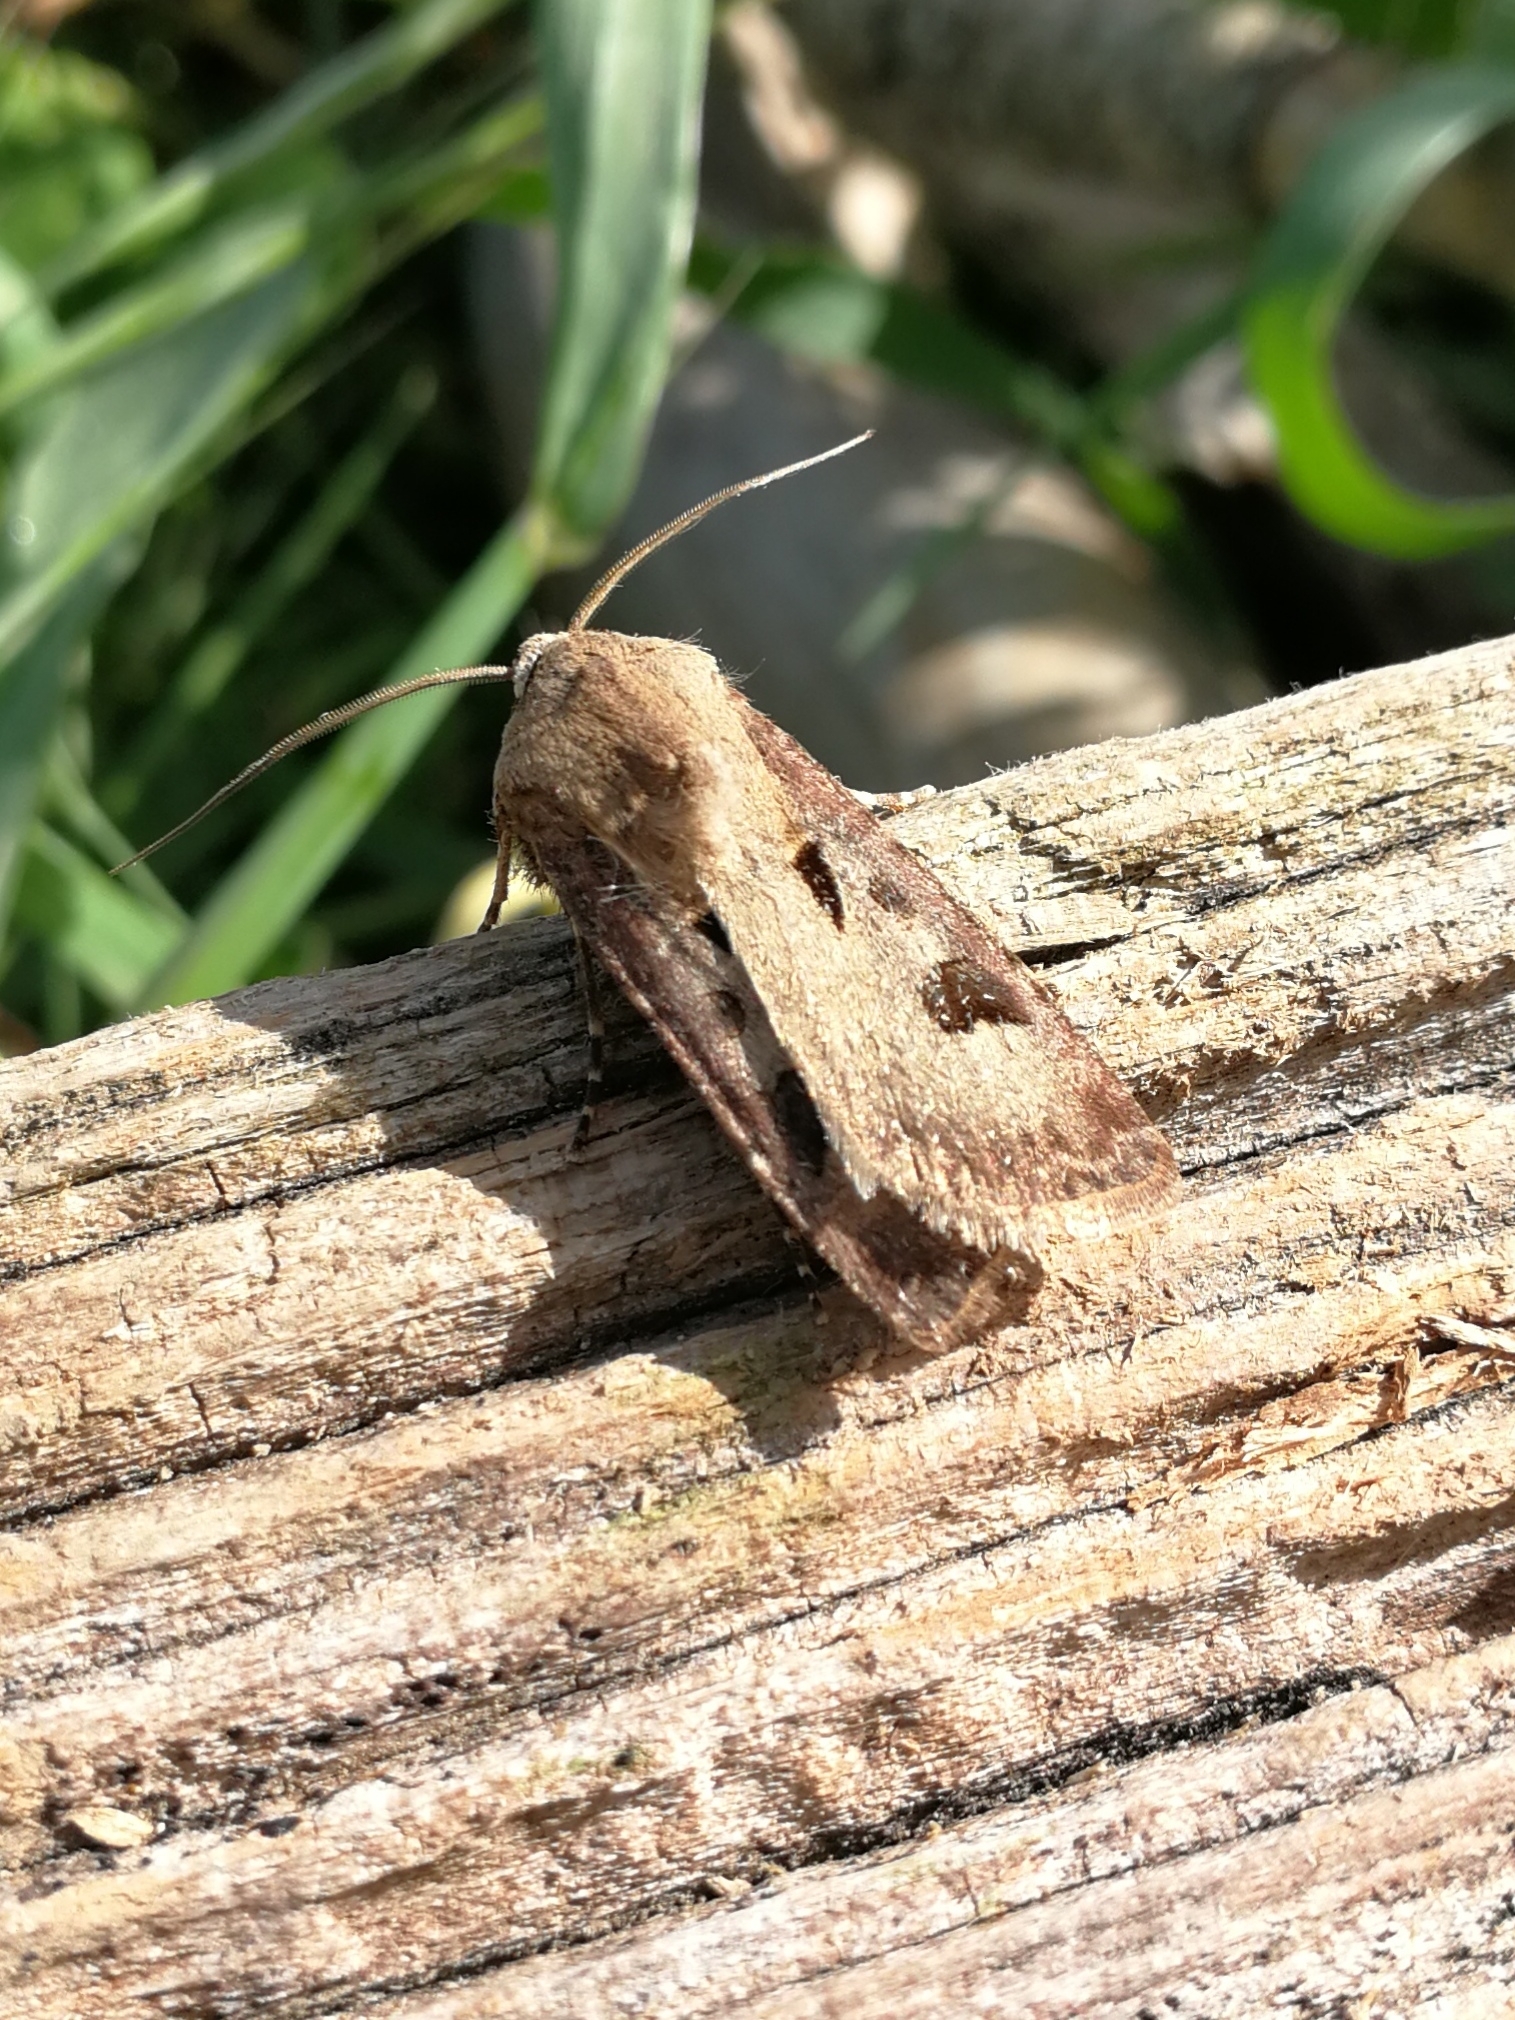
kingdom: Animalia
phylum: Arthropoda
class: Insecta
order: Lepidoptera
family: Noctuidae
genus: Agrotis
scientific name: Agrotis exclamationis
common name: Heart and dart
